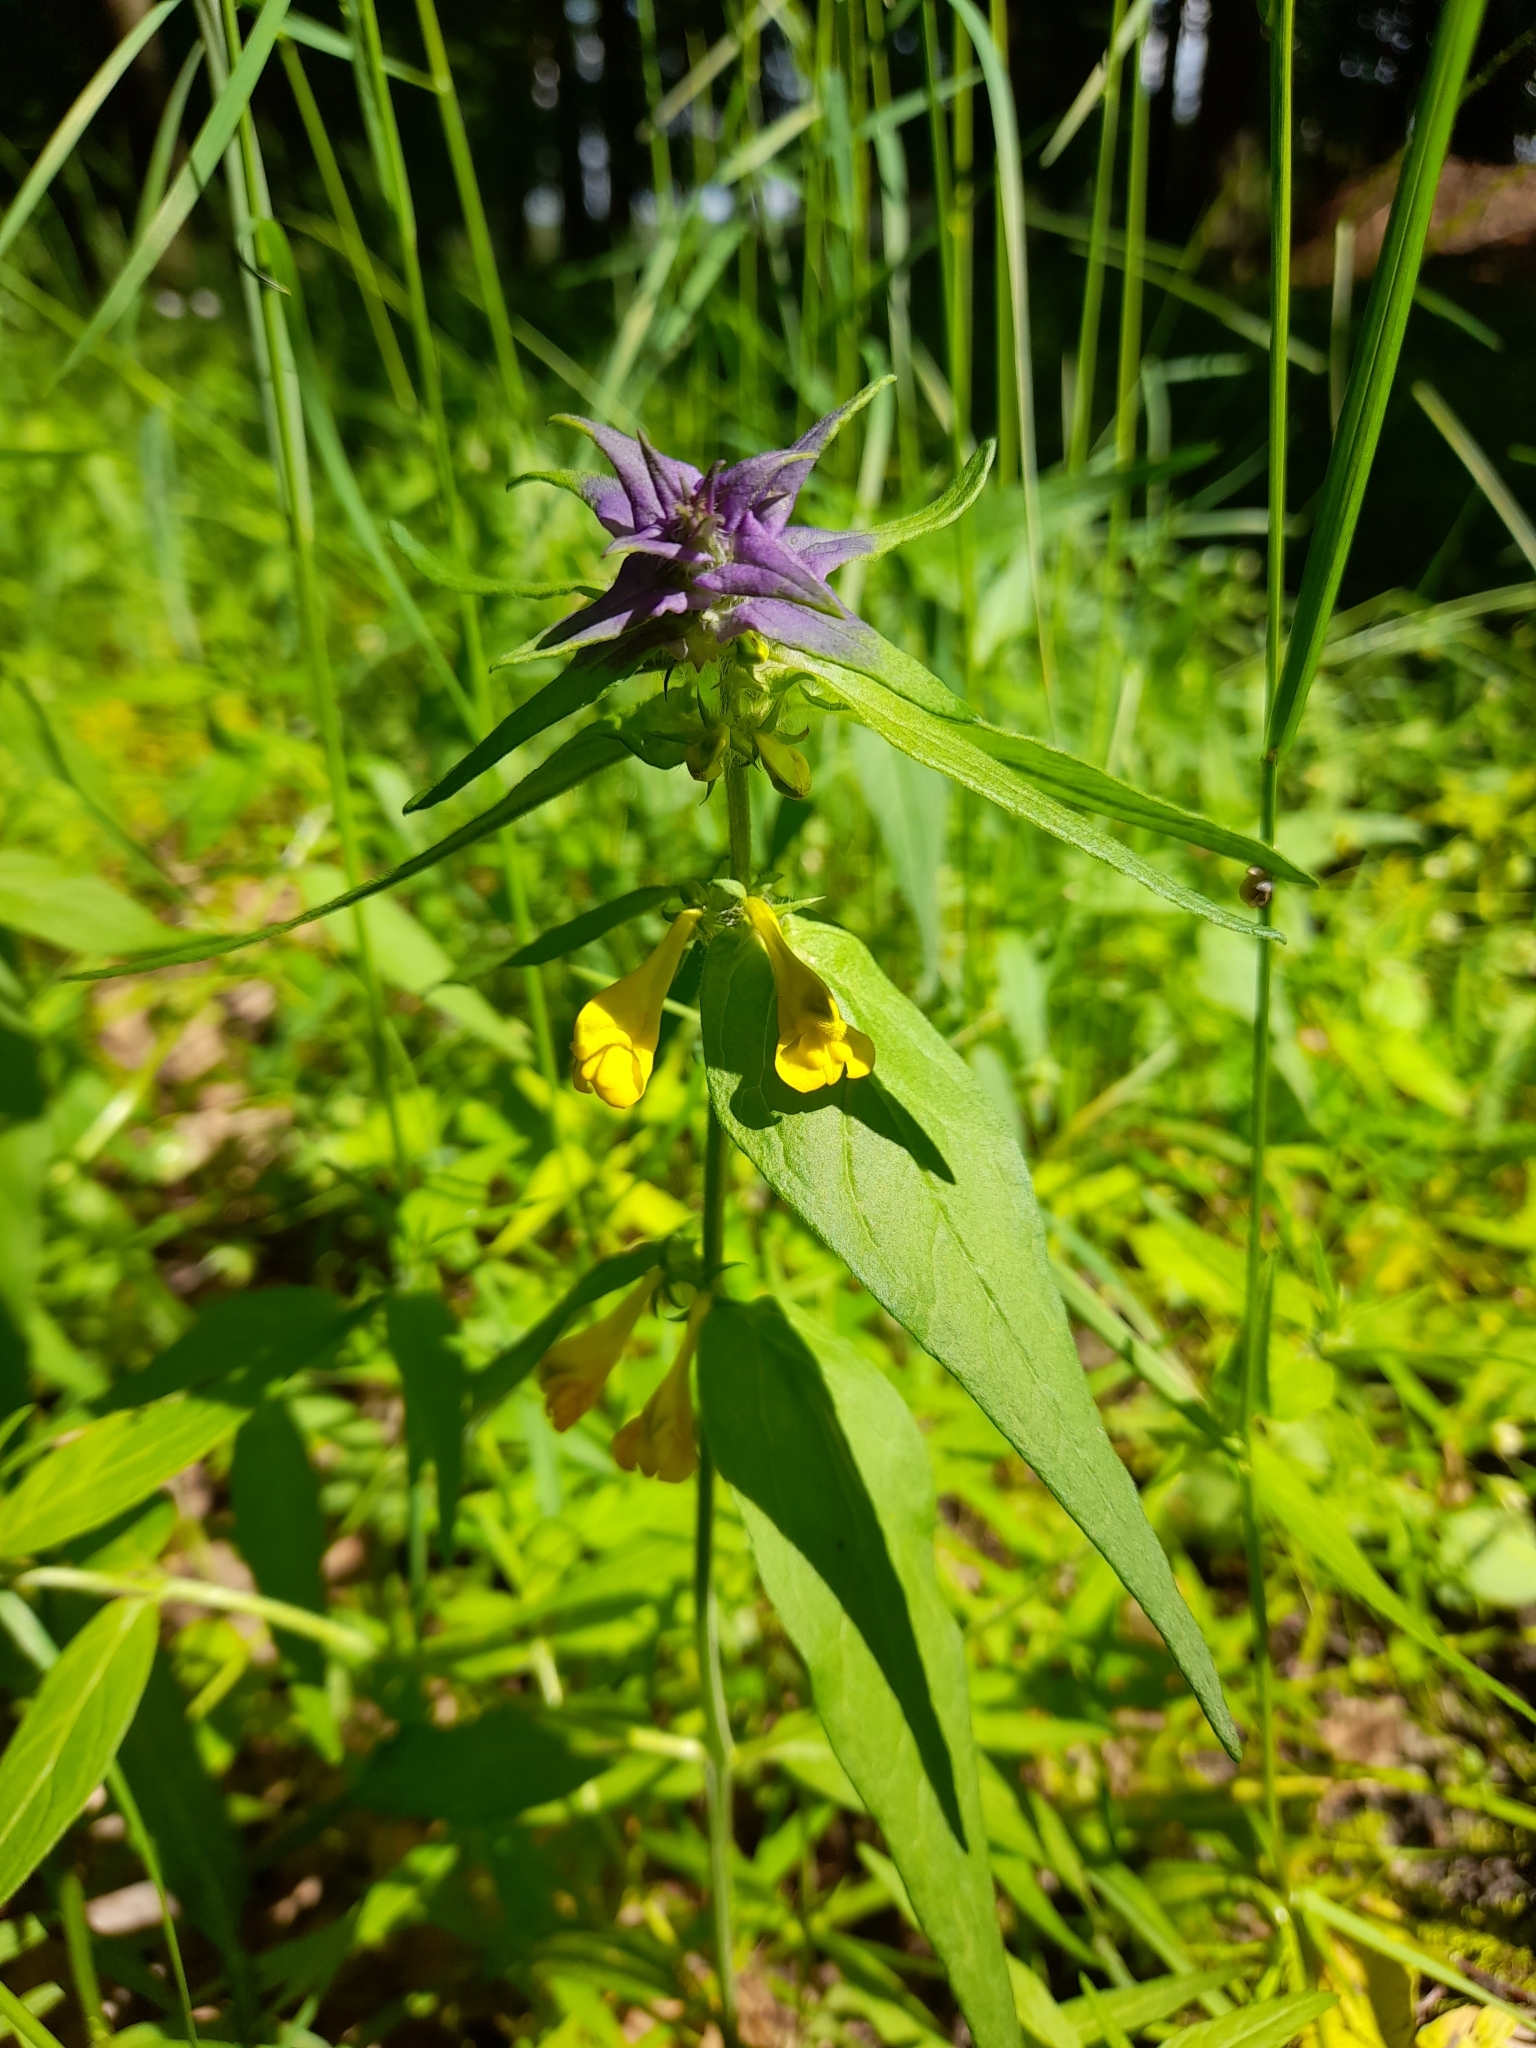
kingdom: Plantae
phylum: Tracheophyta
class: Magnoliopsida
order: Lamiales
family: Orobanchaceae
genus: Melampyrum
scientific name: Melampyrum nemorosum
